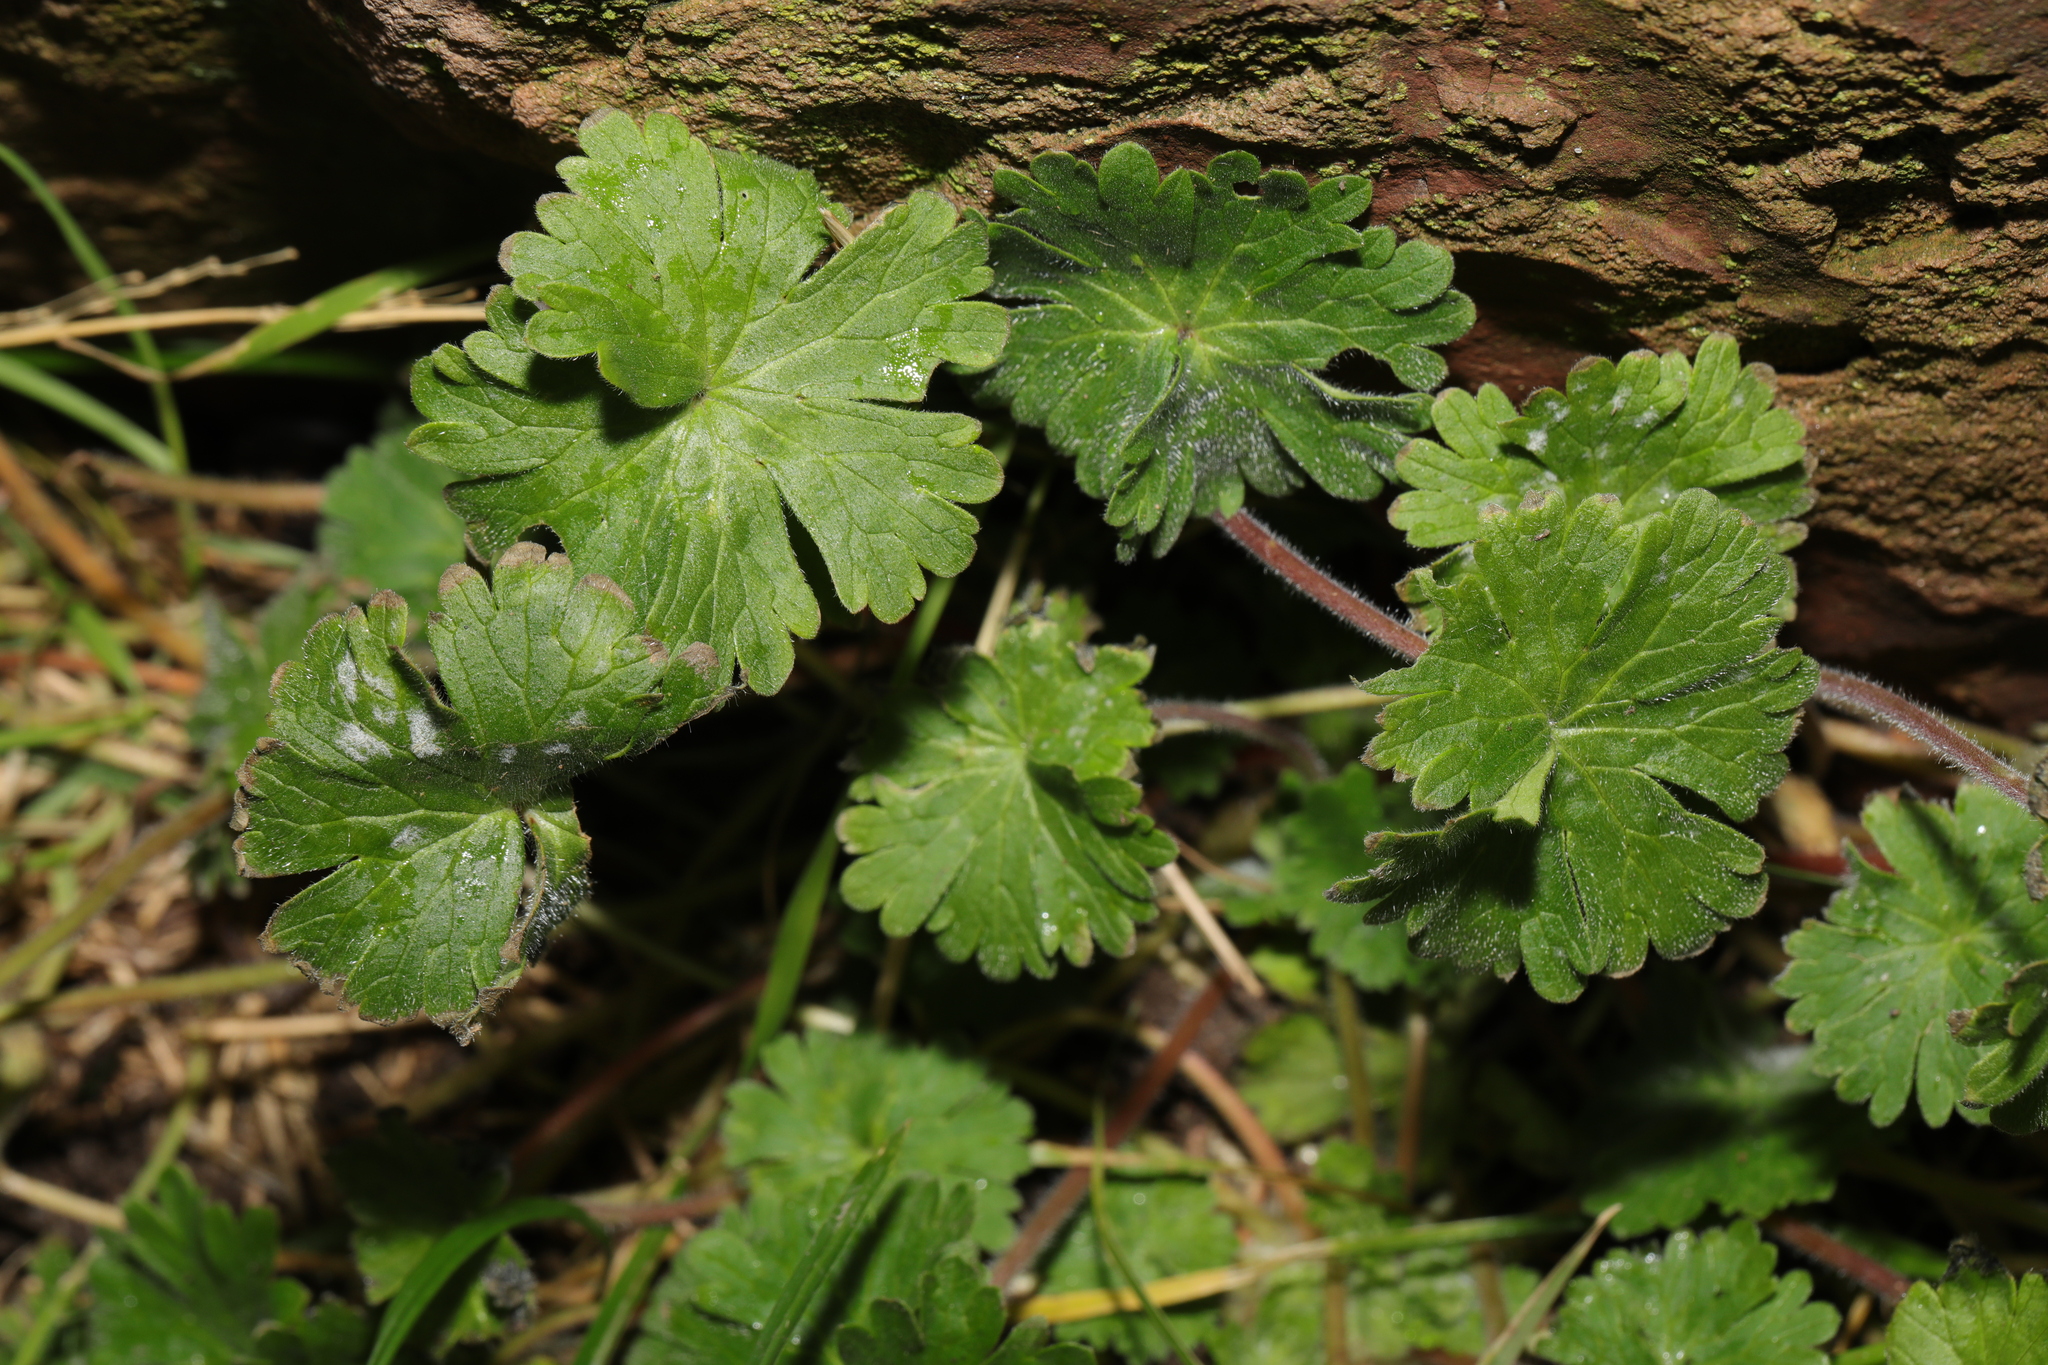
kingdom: Plantae
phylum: Tracheophyta
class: Magnoliopsida
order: Geraniales
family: Geraniaceae
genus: Geranium
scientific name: Geranium molle
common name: Dove's-foot crane's-bill
